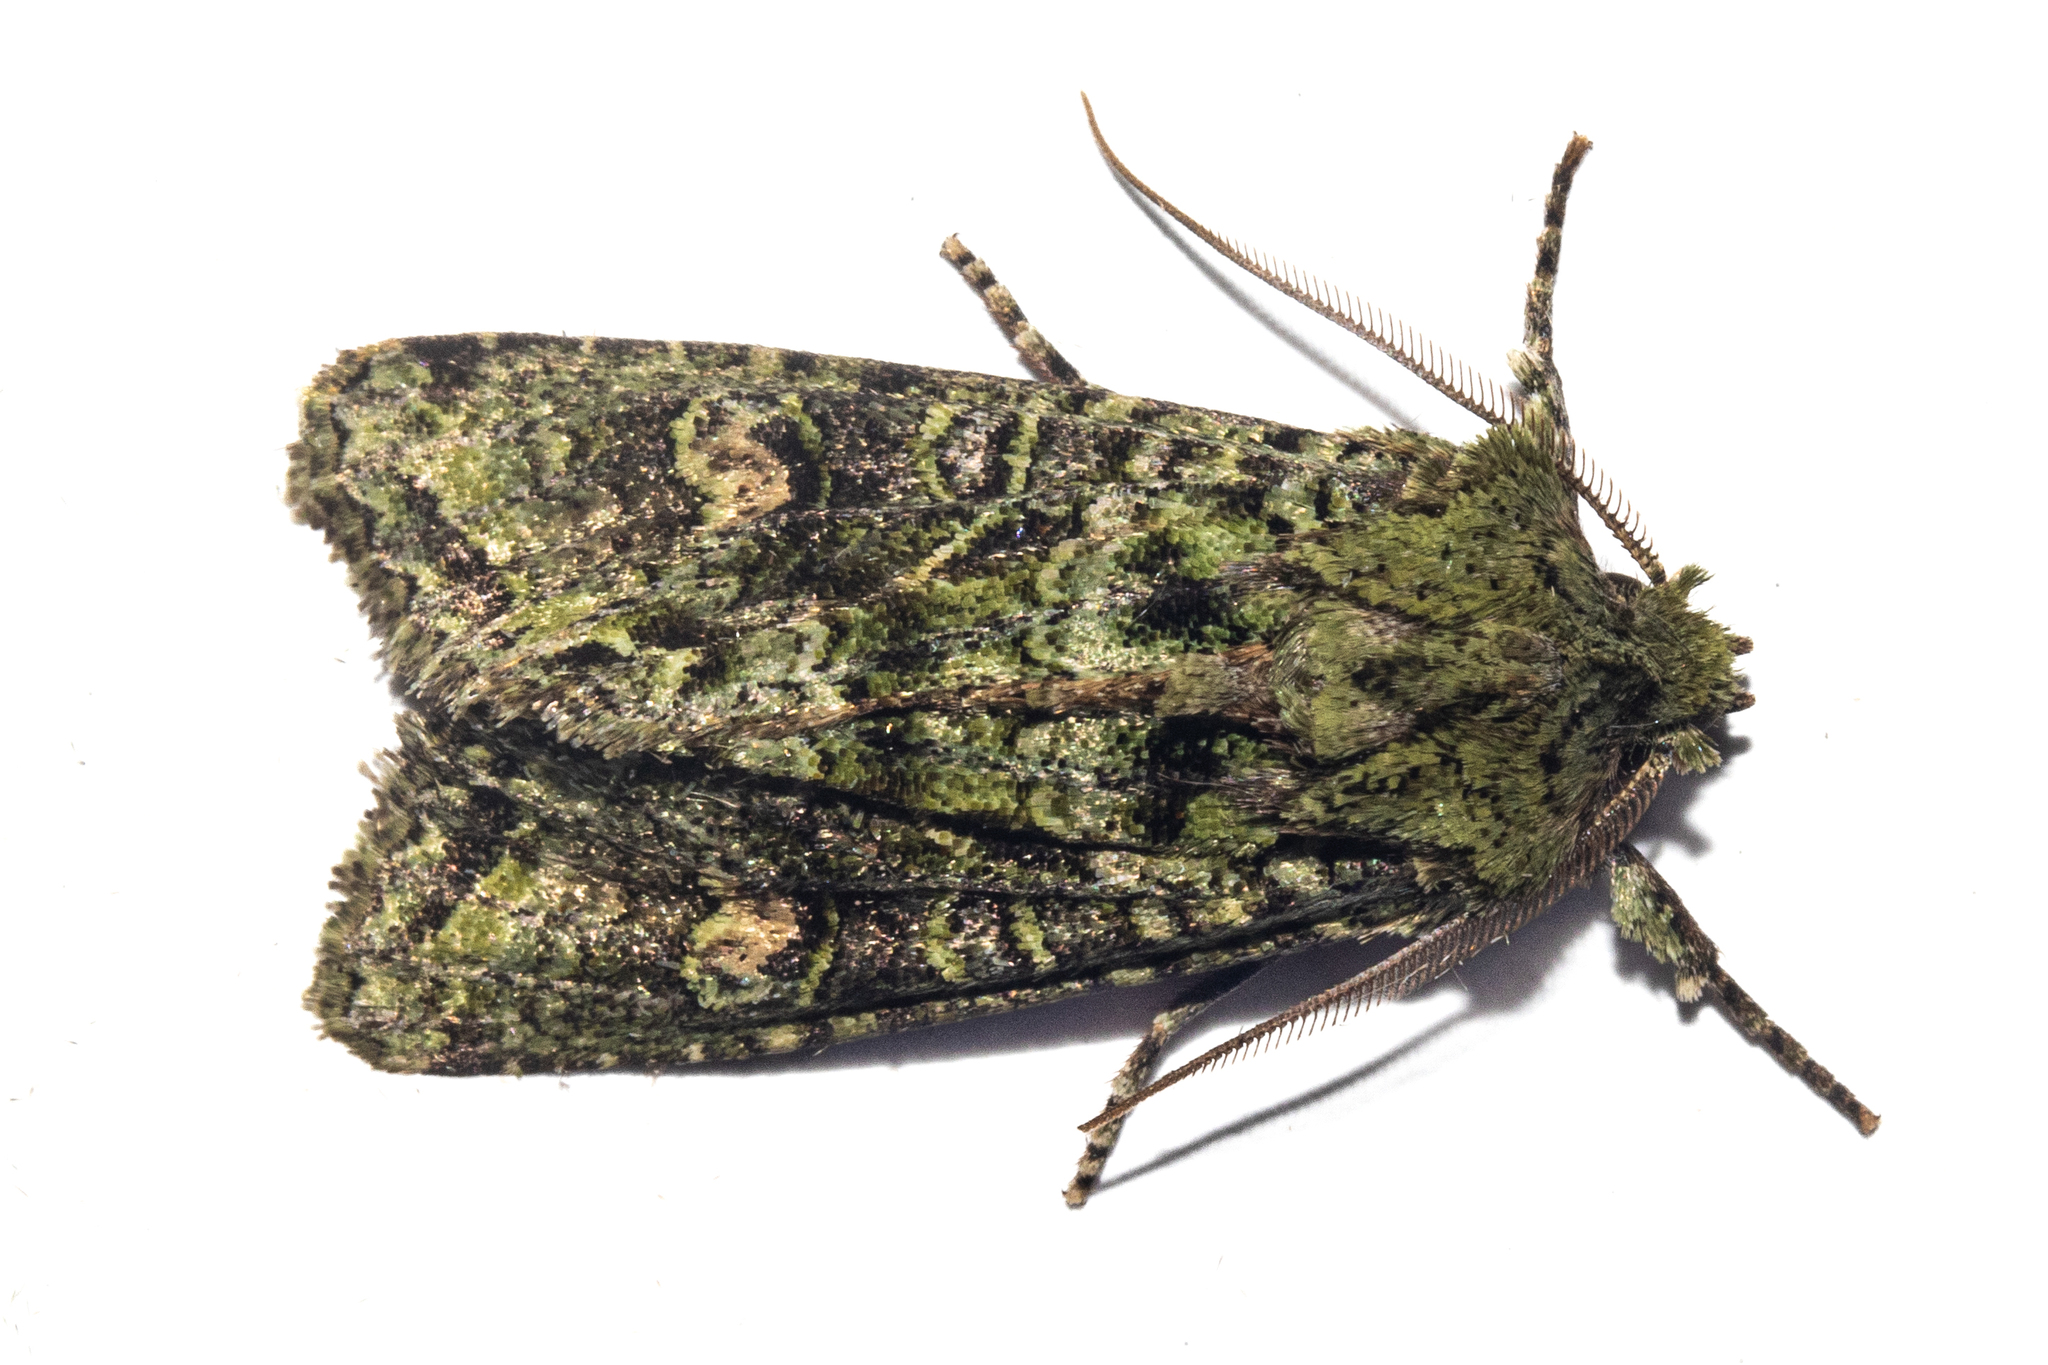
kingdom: Animalia
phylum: Arthropoda
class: Insecta
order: Lepidoptera
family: Noctuidae
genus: Ichneutica
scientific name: Ichneutica
